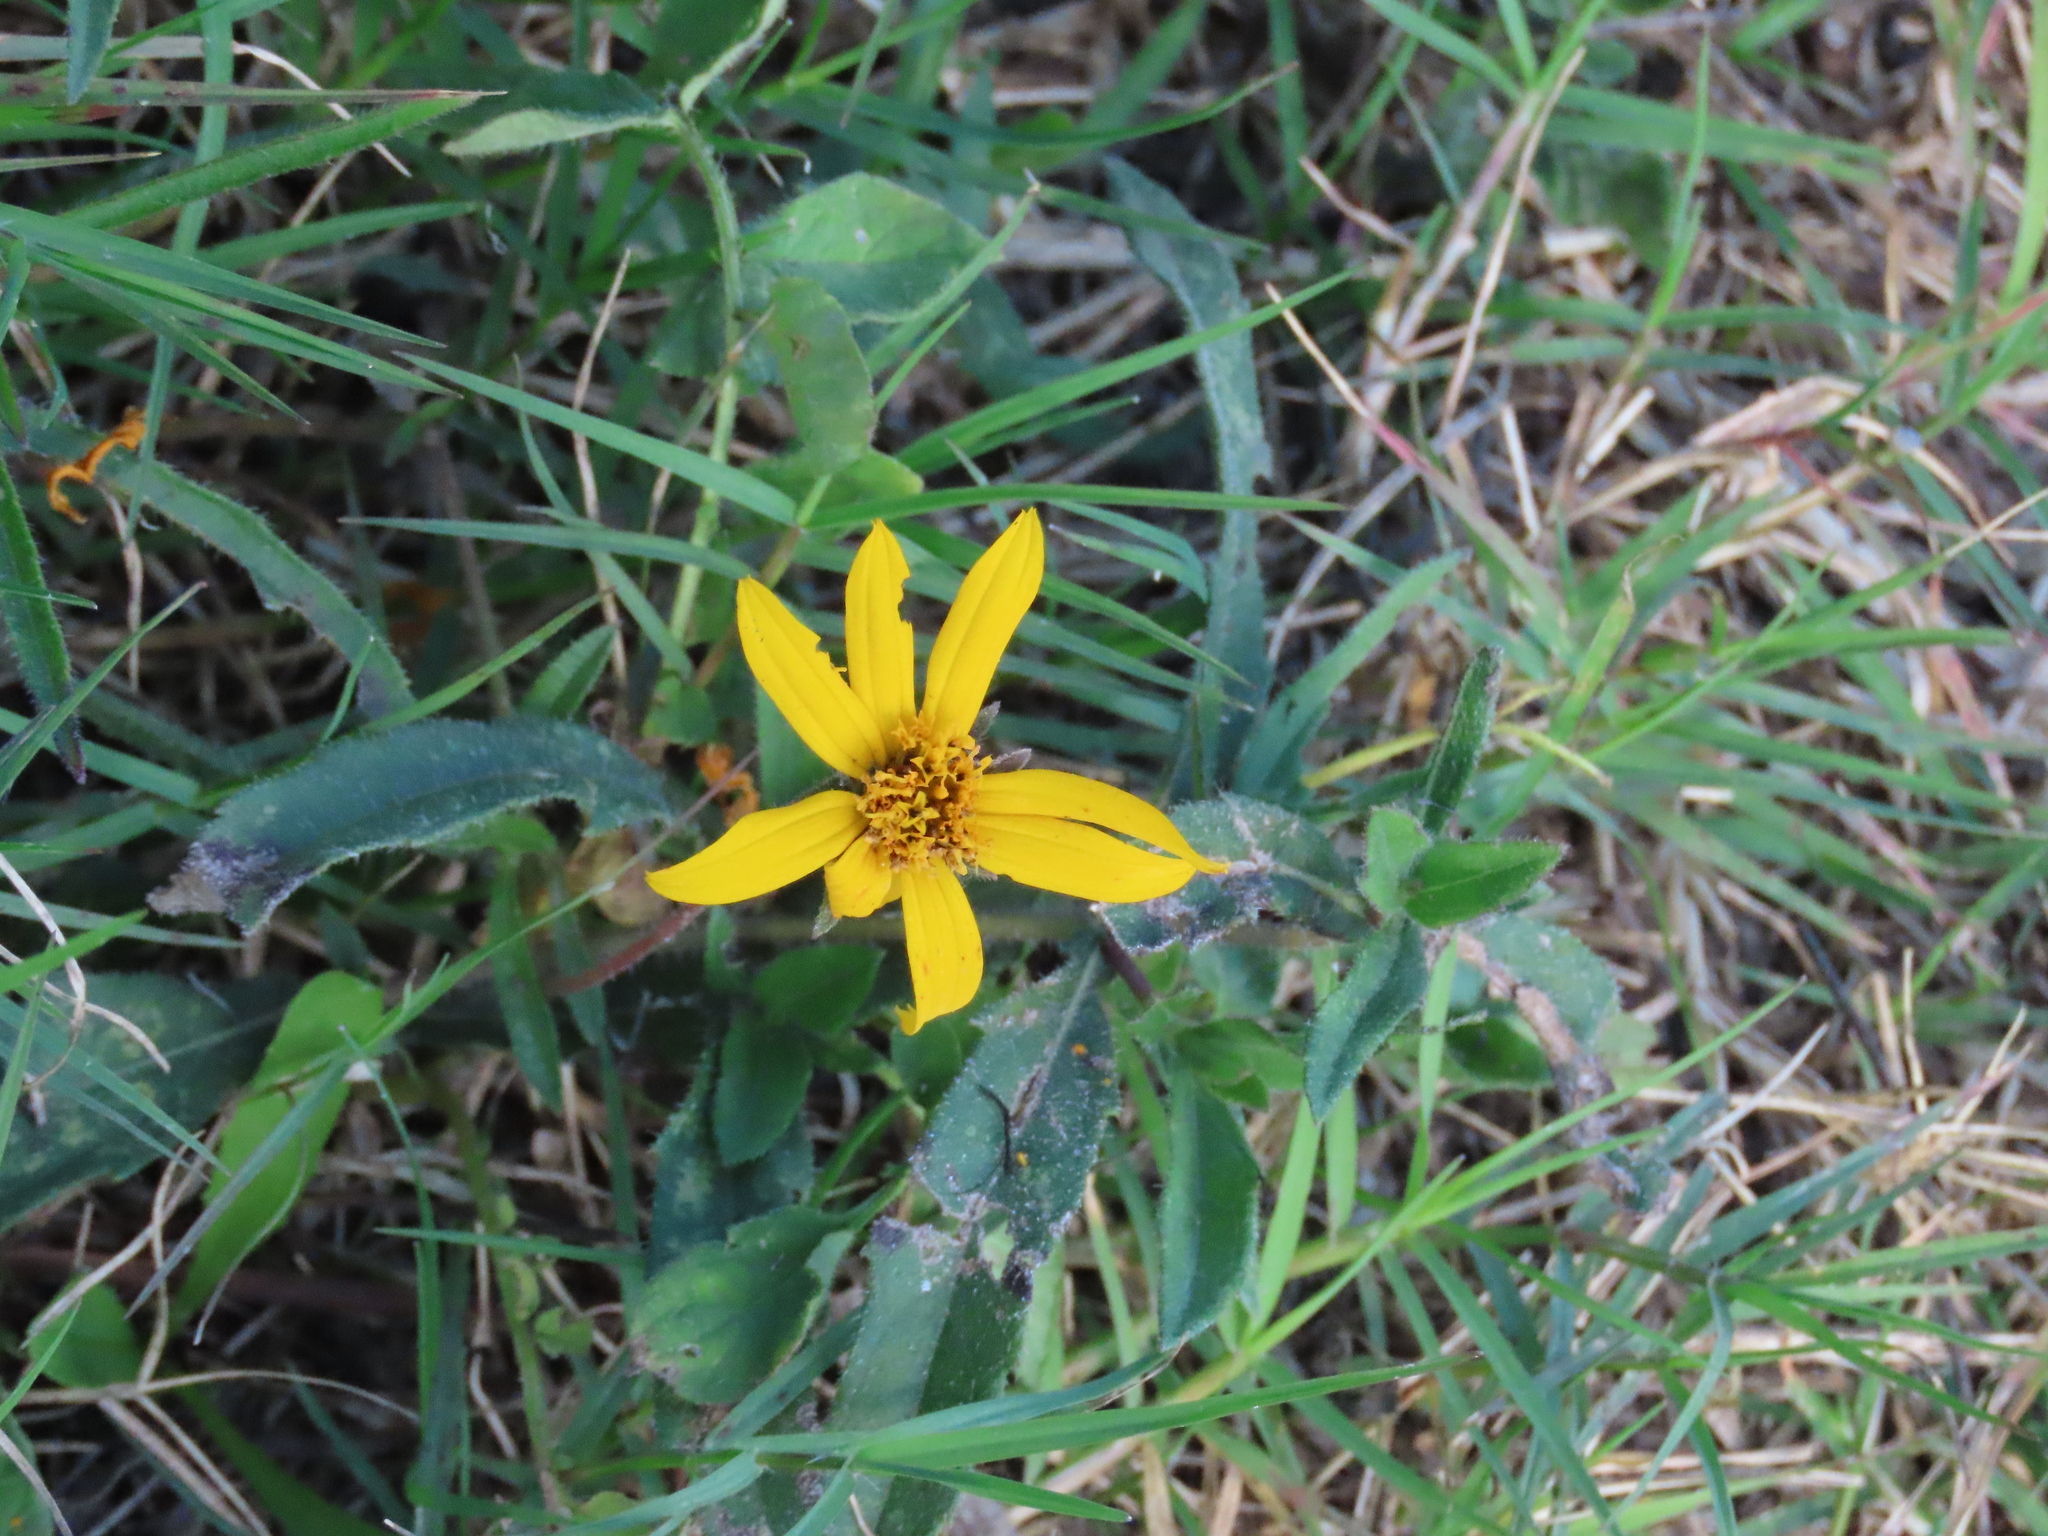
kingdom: Plantae
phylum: Tracheophyta
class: Magnoliopsida
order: Asterales
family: Asteraceae
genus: Wedelia
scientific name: Wedelia montevidensis
